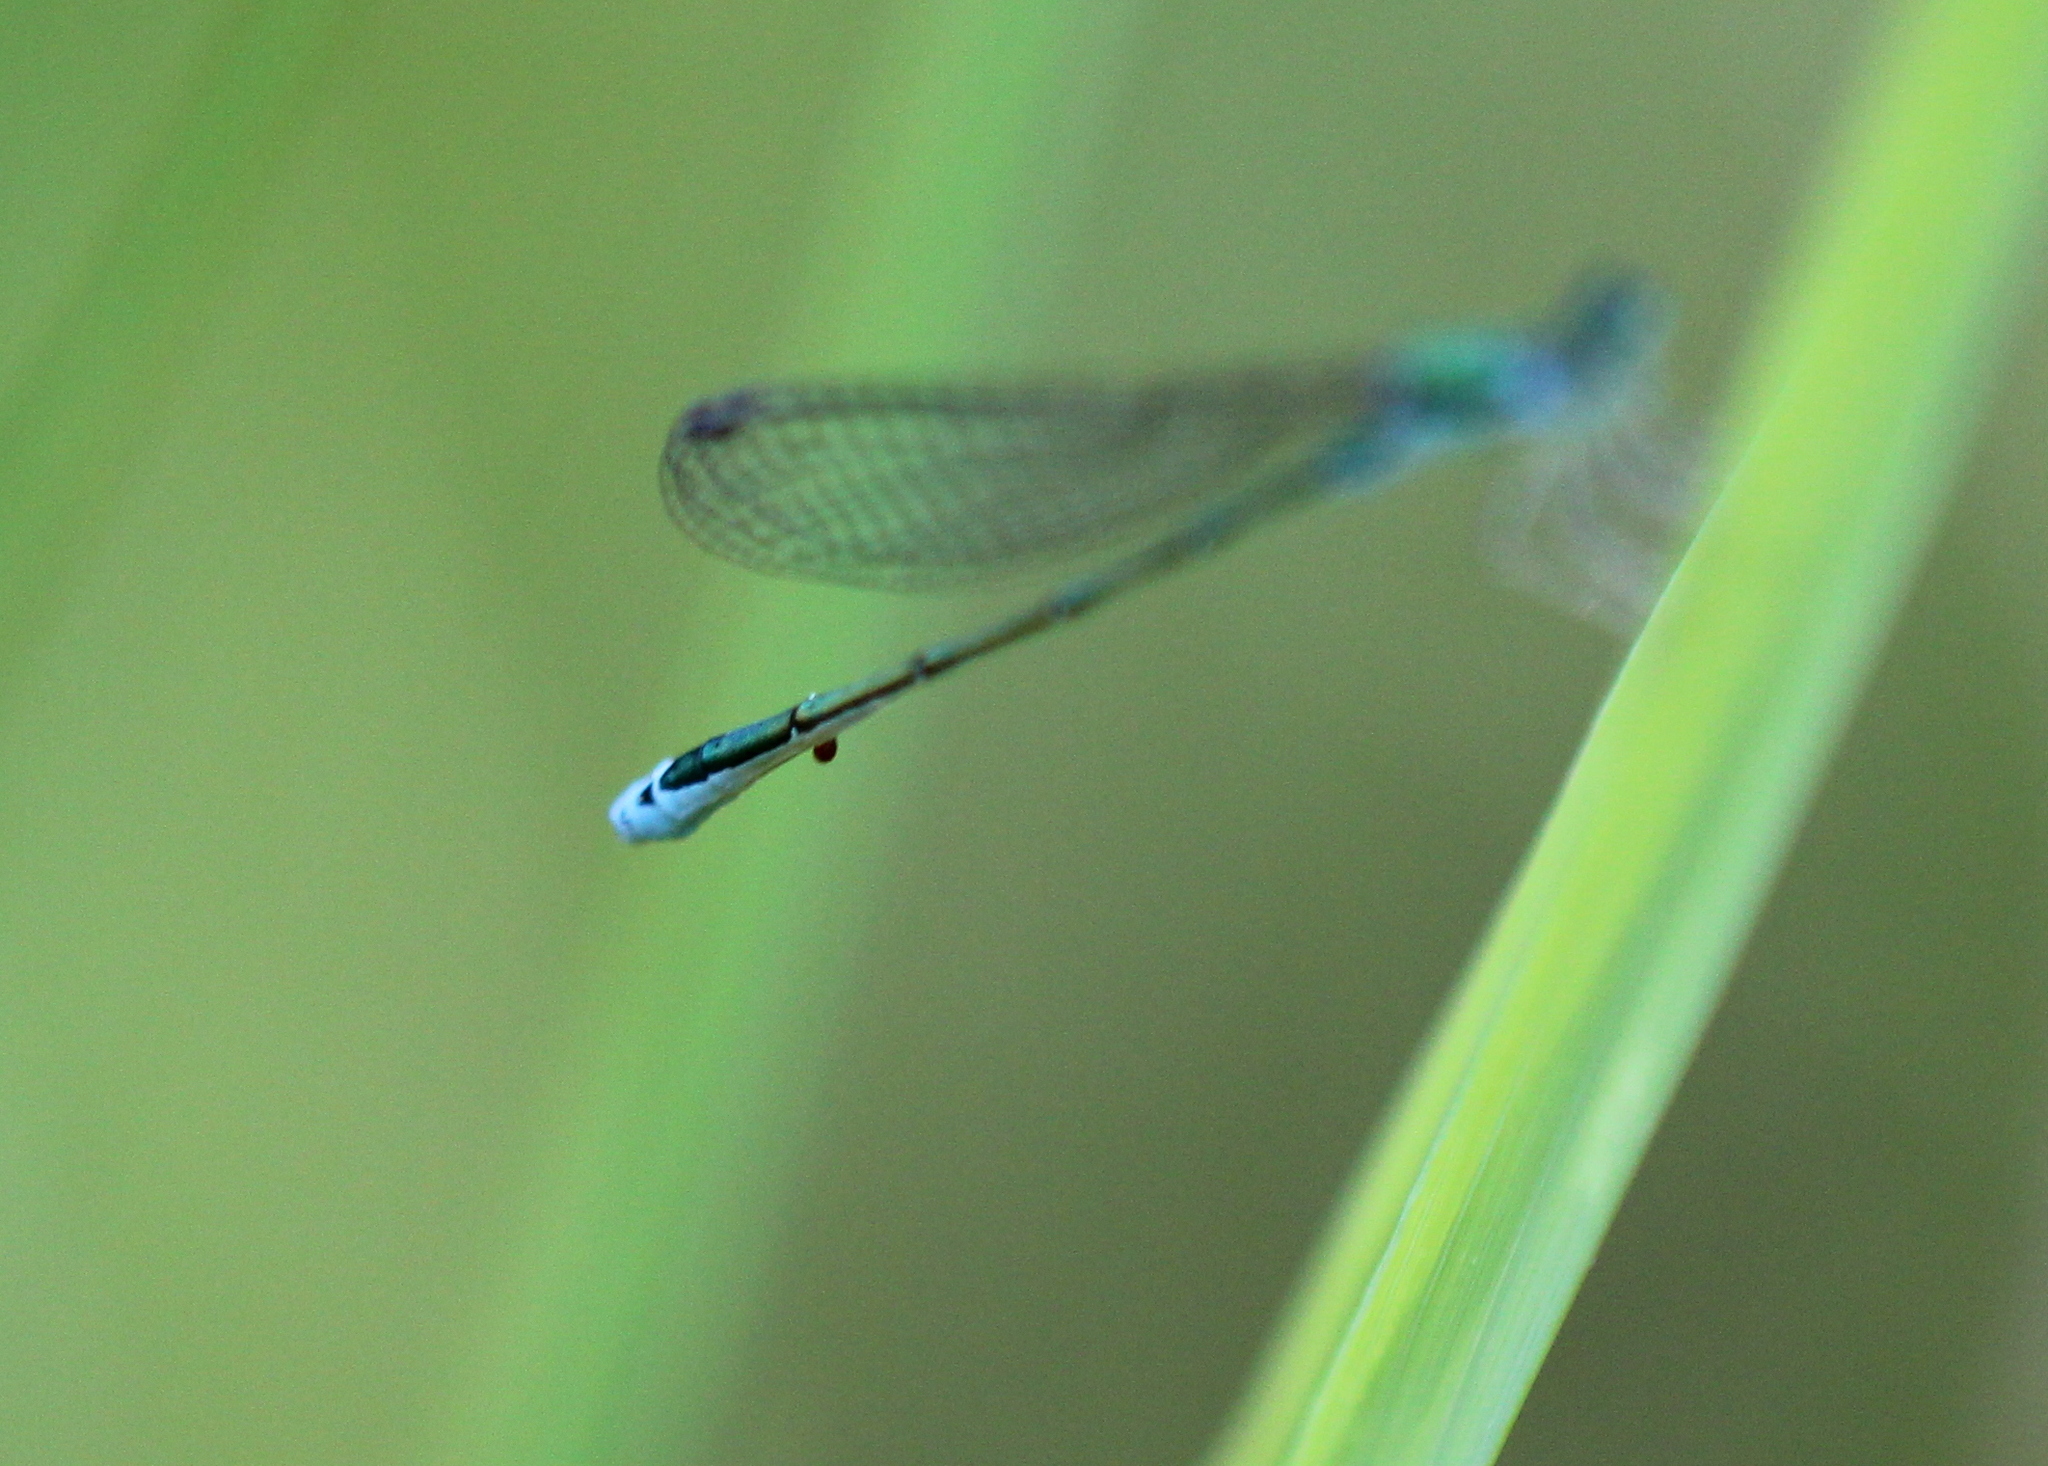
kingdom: Animalia
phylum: Arthropoda
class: Insecta
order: Odonata
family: Coenagrionidae
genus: Nehalennia
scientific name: Nehalennia irene
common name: Sedge sprite
